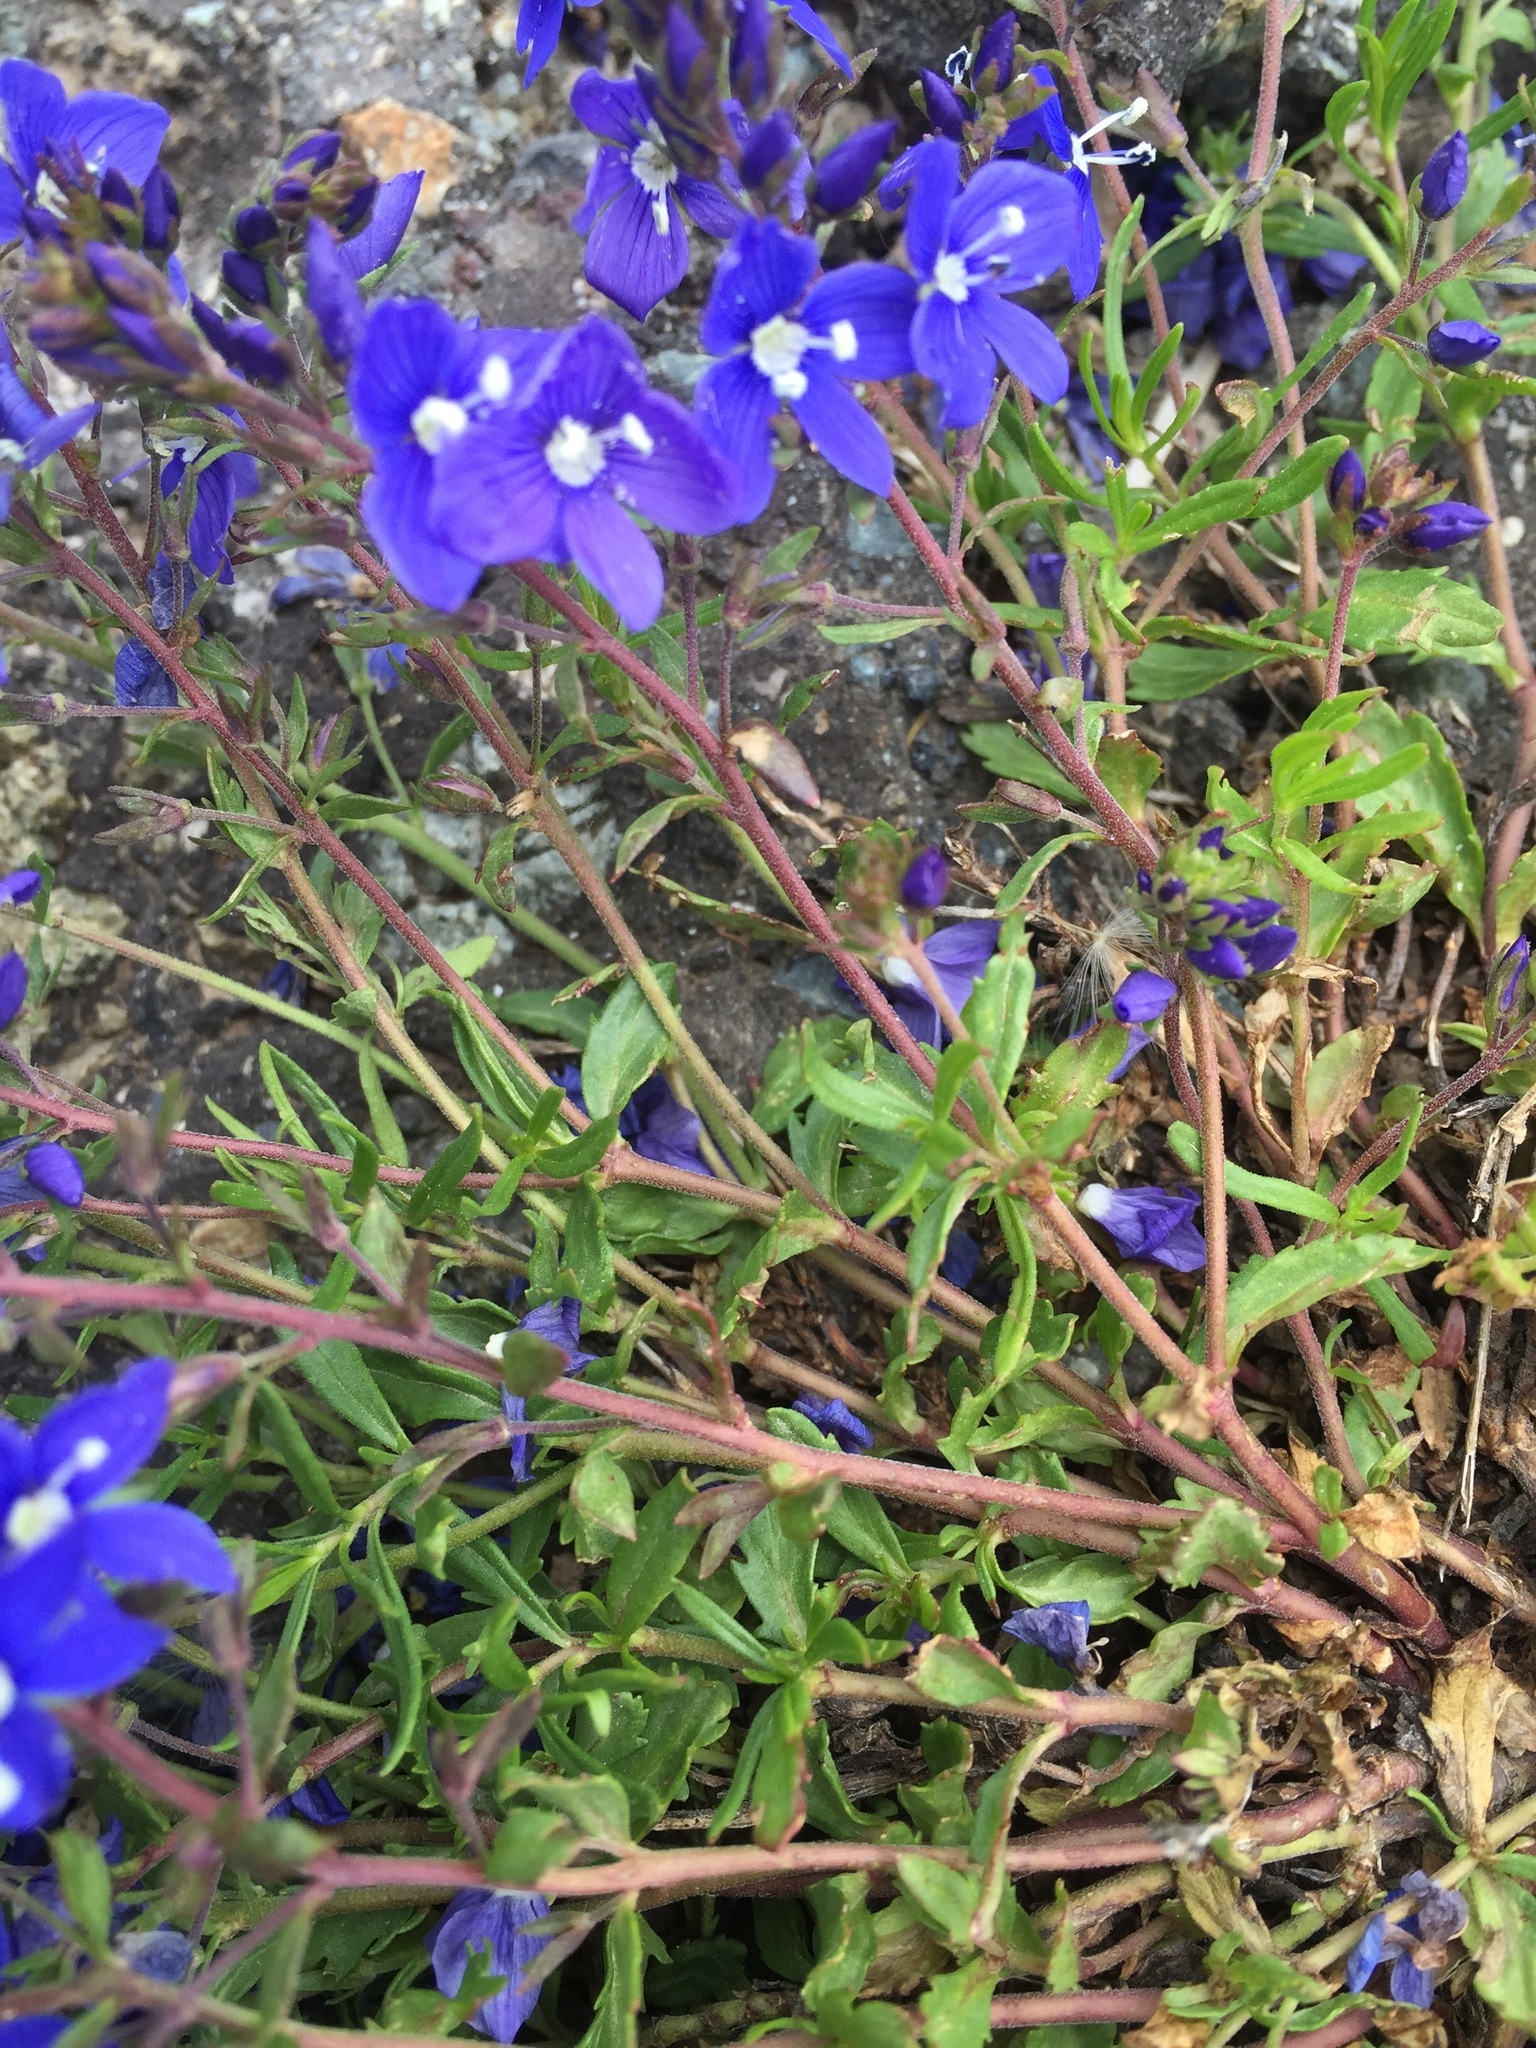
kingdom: Plantae
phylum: Tracheophyta
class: Magnoliopsida
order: Lamiales
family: Plantaginaceae
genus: Veronica
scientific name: Veronica orientalis
